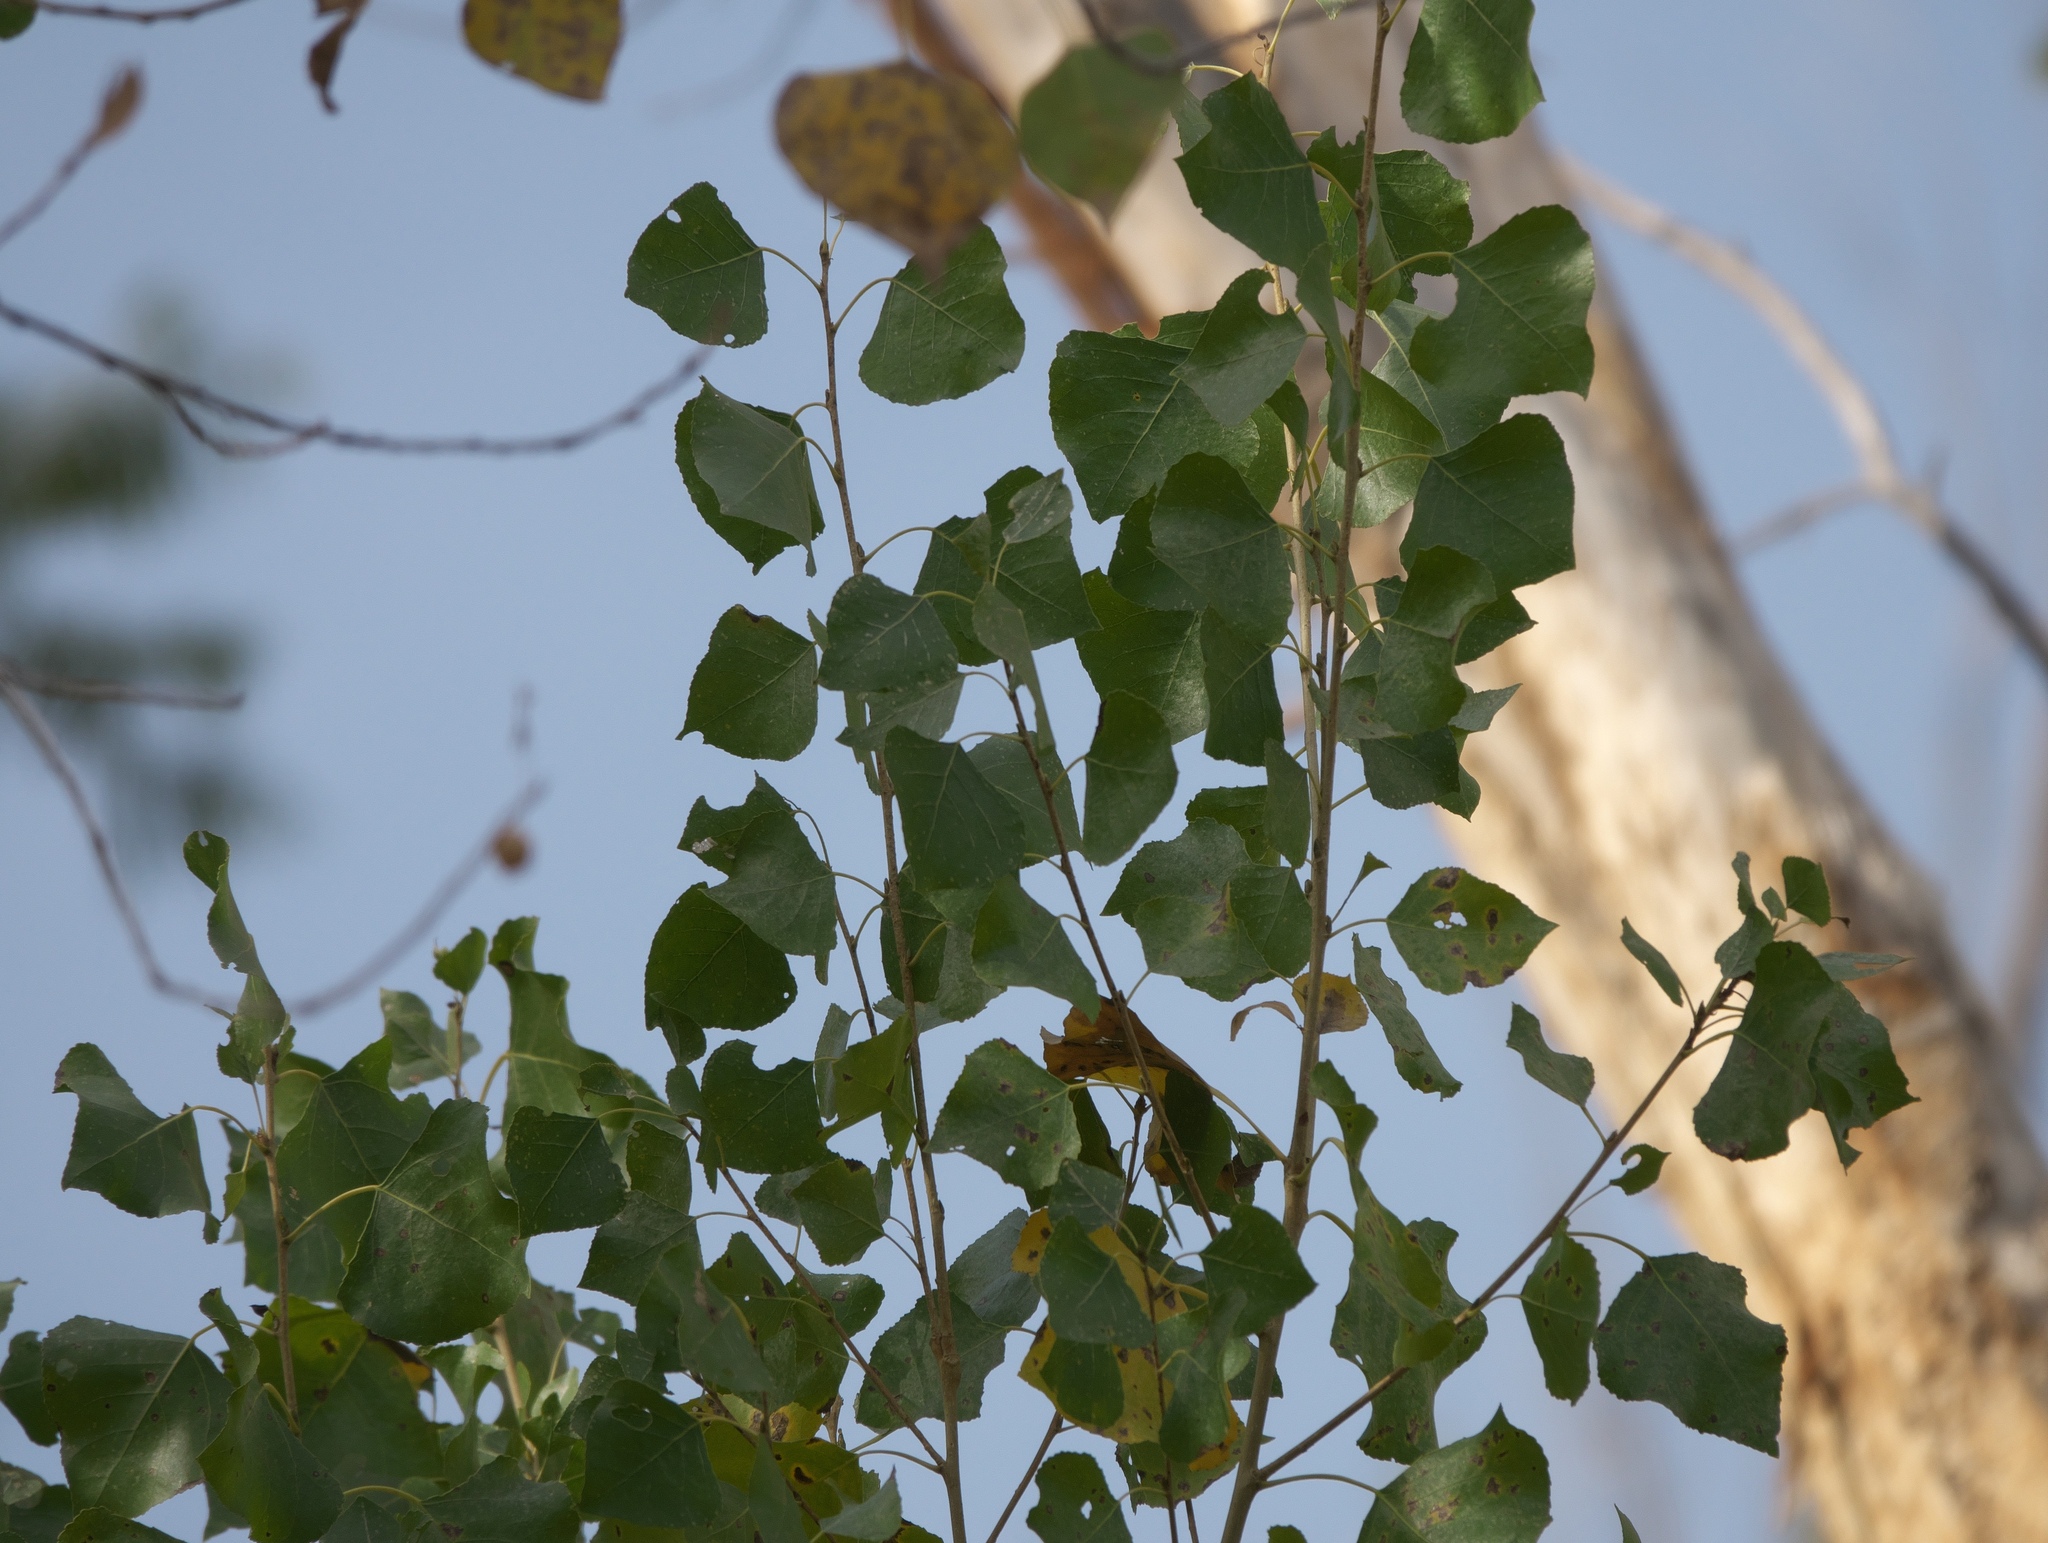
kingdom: Plantae
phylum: Tracheophyta
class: Magnoliopsida
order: Malpighiales
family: Salicaceae
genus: Populus
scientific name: Populus fremontii
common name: Fremont's cottonwood
